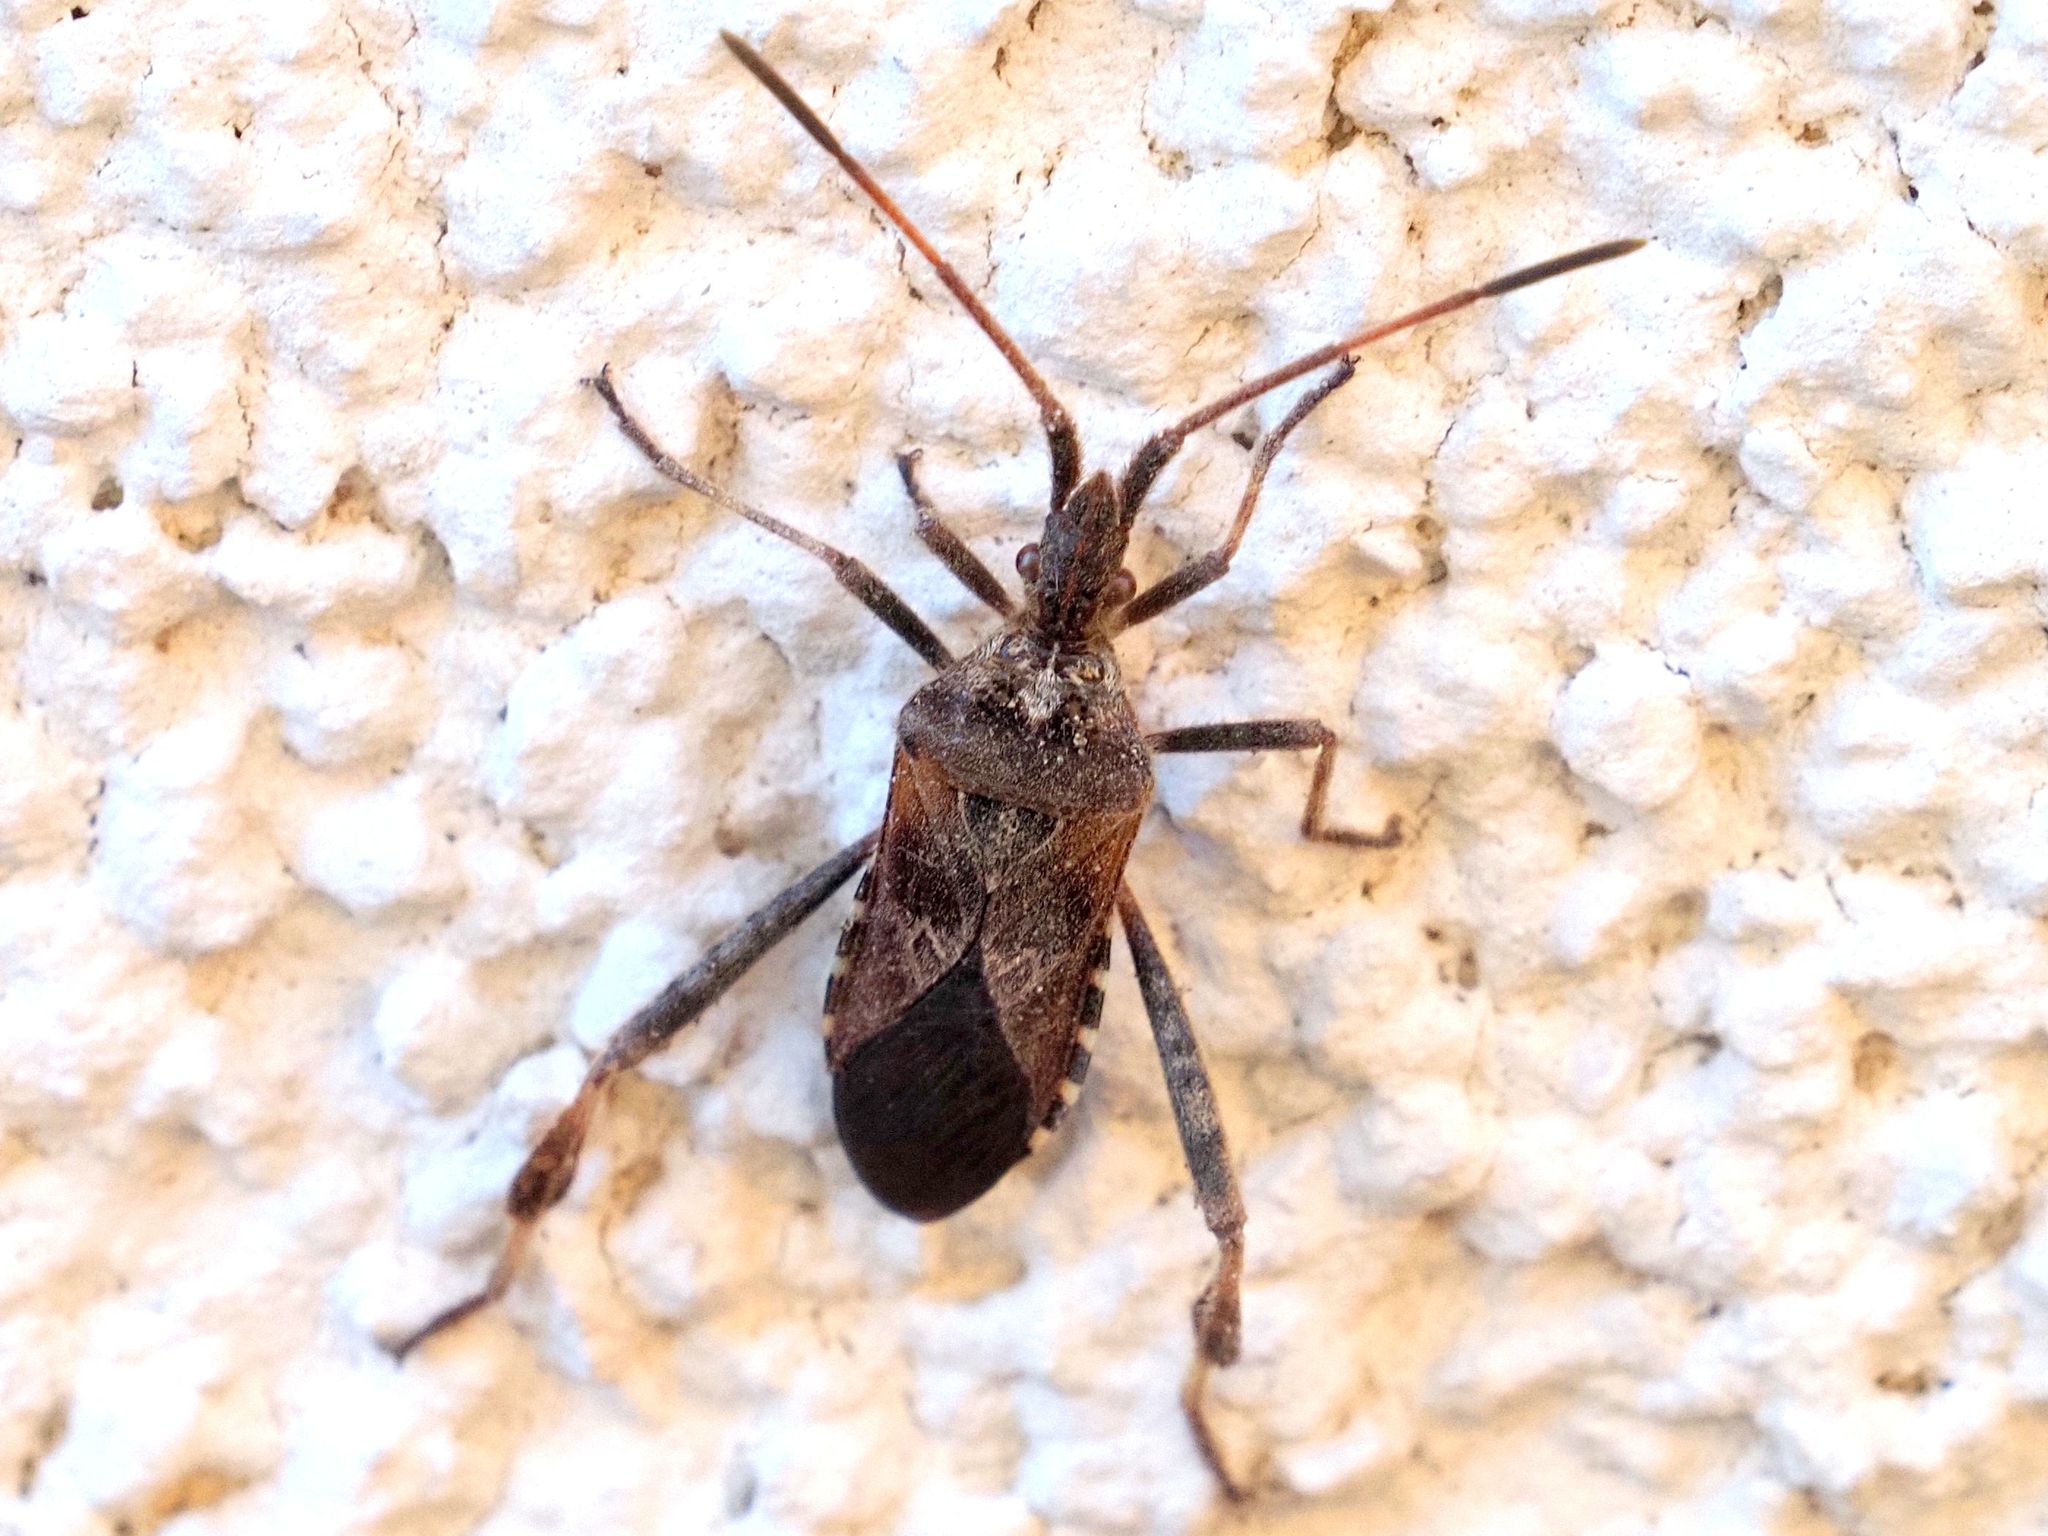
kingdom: Animalia
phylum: Arthropoda
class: Insecta
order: Hemiptera
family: Coreidae
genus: Leptoglossus
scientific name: Leptoglossus occidentalis
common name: Western conifer-seed bug
